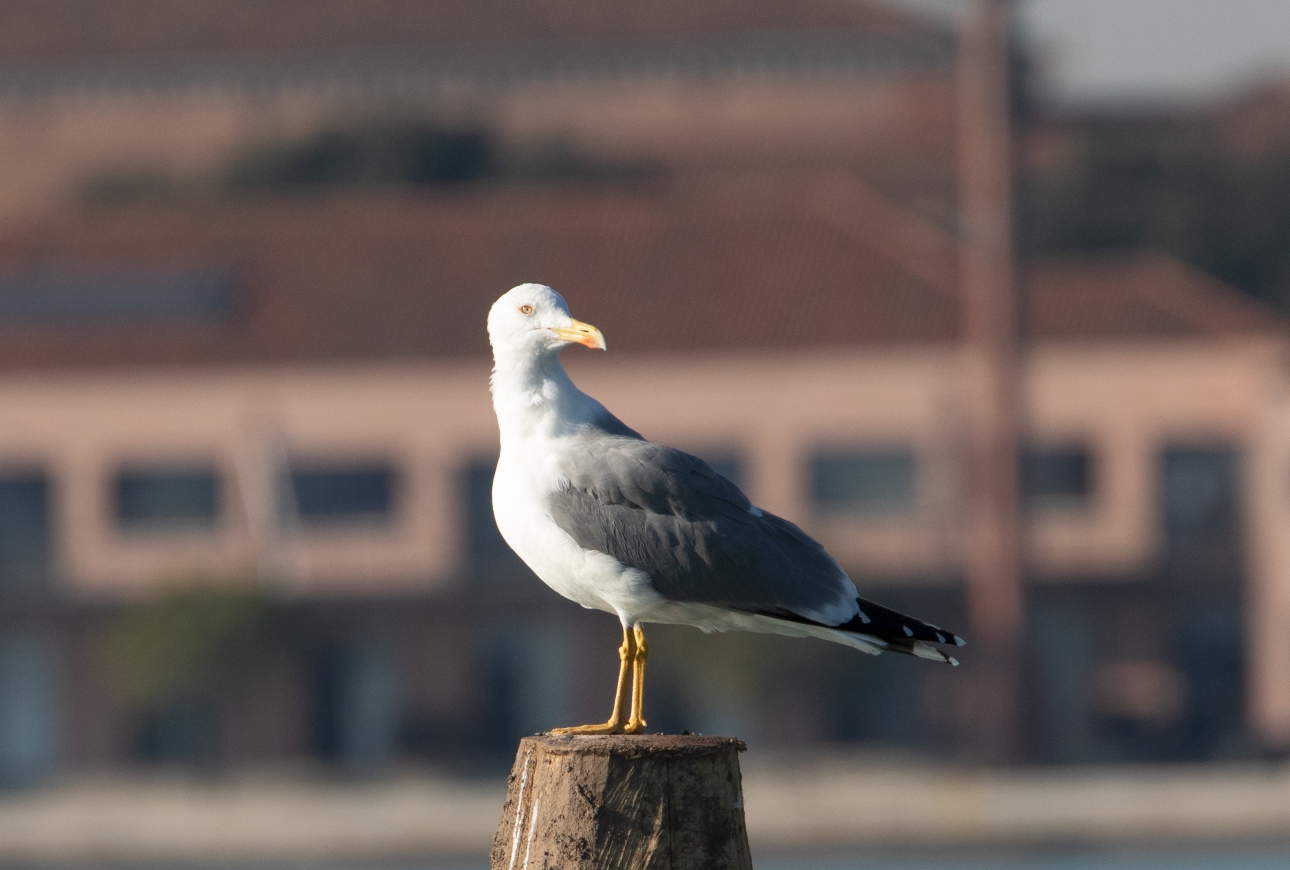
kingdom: Animalia
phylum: Chordata
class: Aves
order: Charadriiformes
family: Laridae
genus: Larus
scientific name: Larus michahellis
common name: Yellow-legged gull
